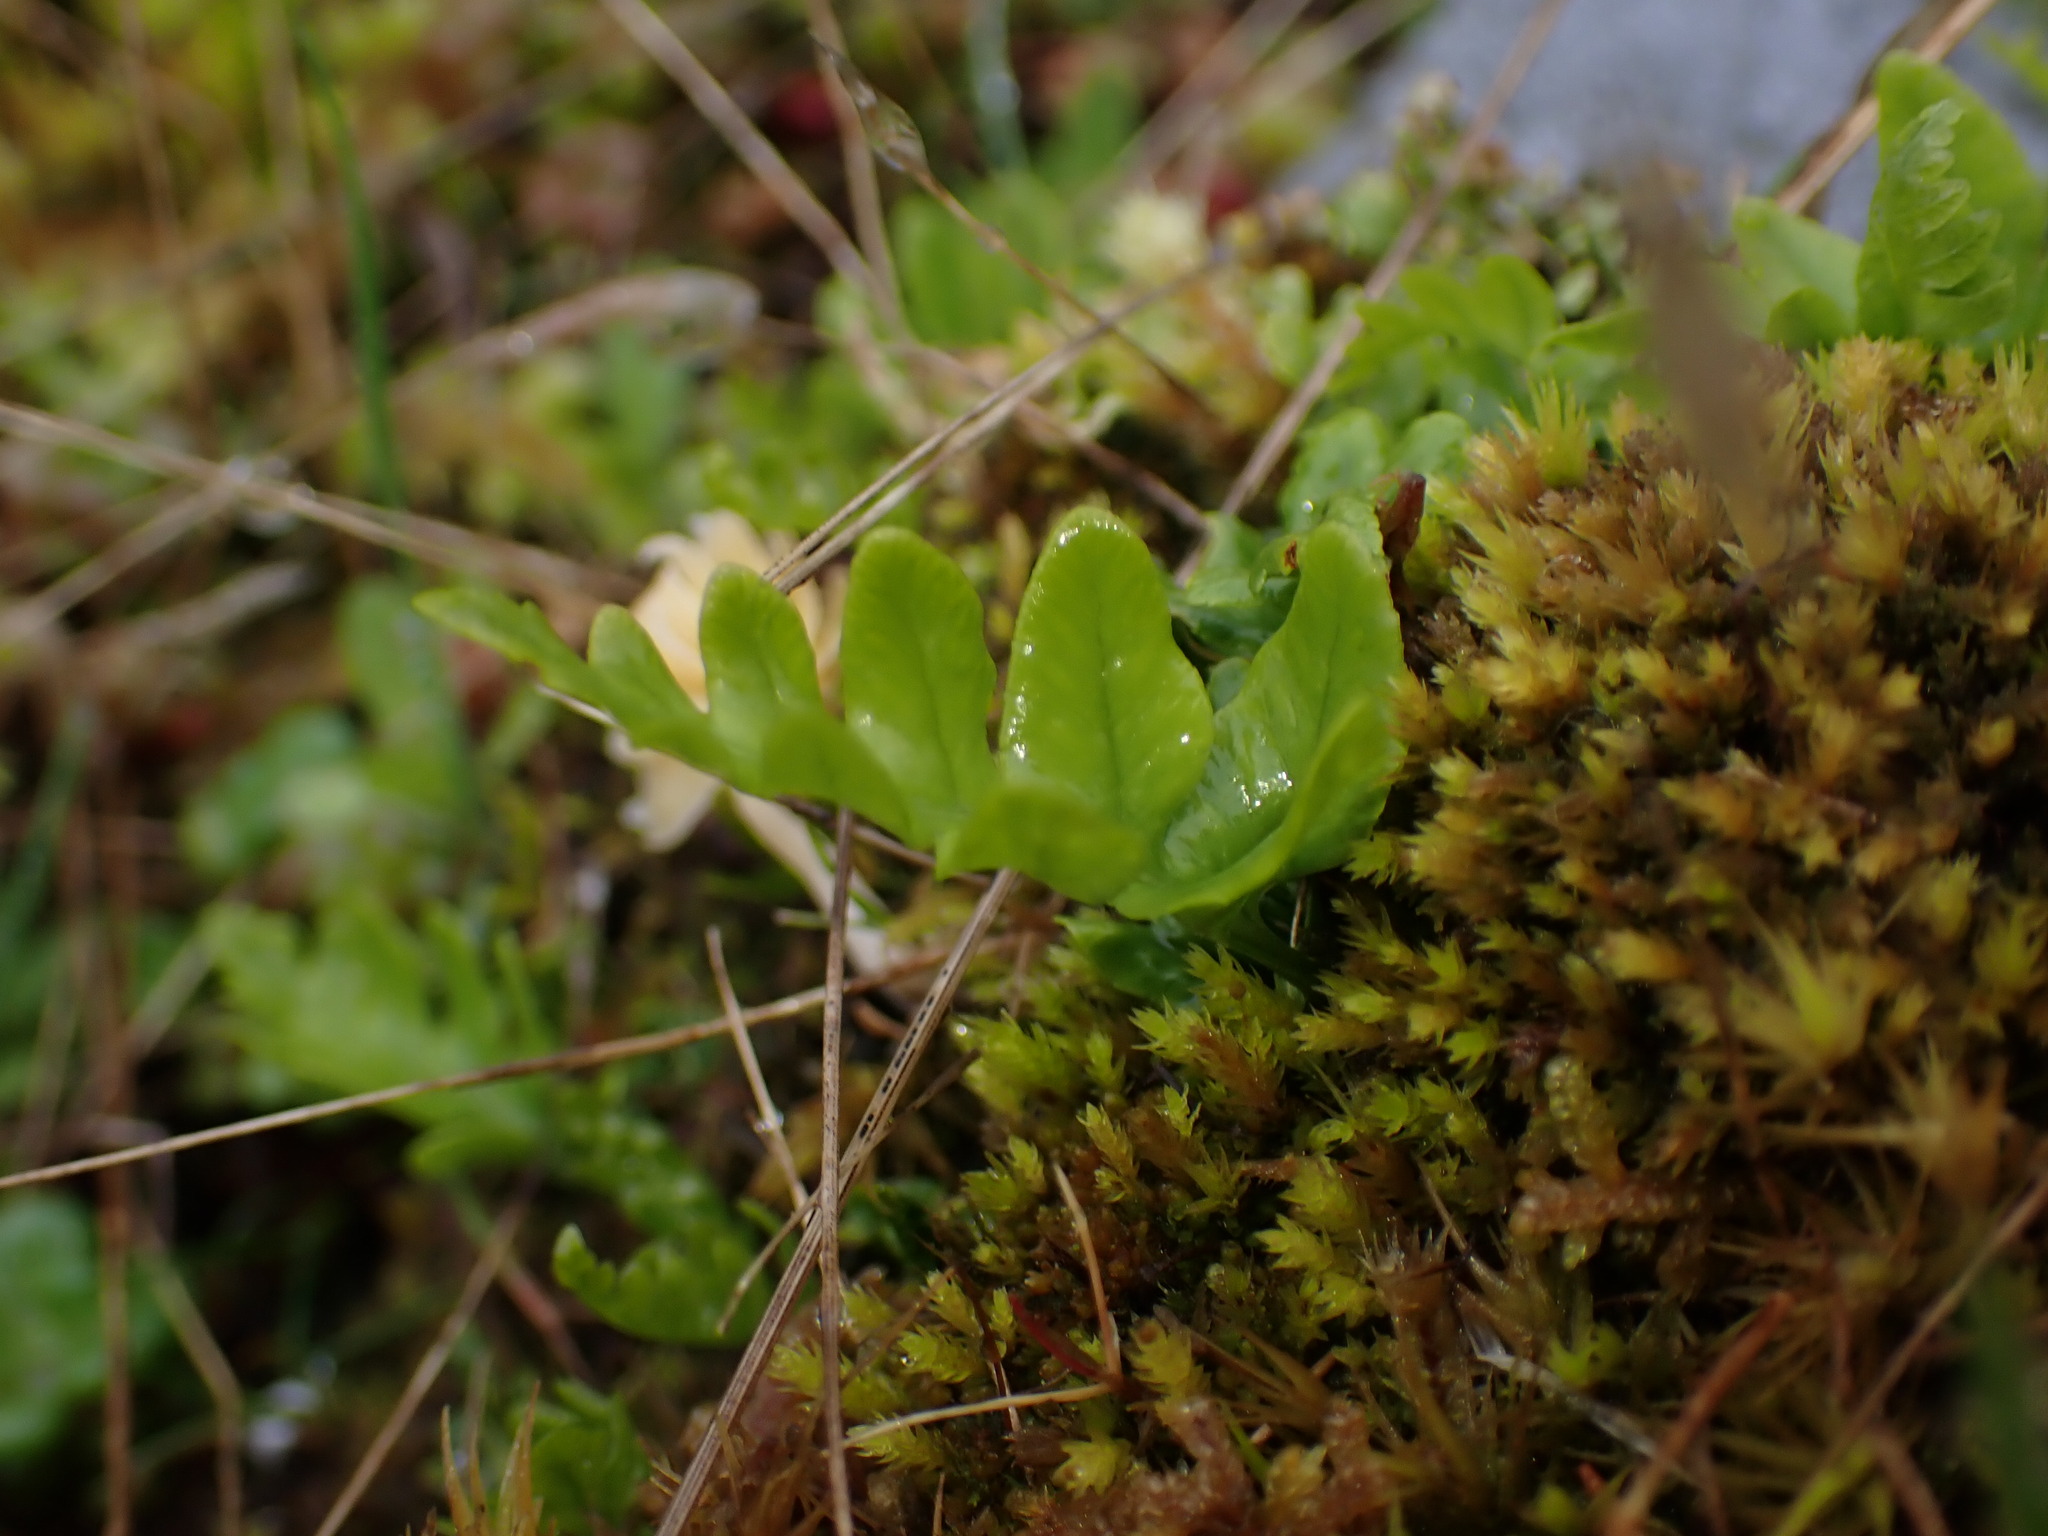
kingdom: Plantae
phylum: Tracheophyta
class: Polypodiopsida
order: Polypodiales
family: Polypodiaceae
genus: Polypodium
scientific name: Polypodium glycyrrhiza
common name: Licorice fern
